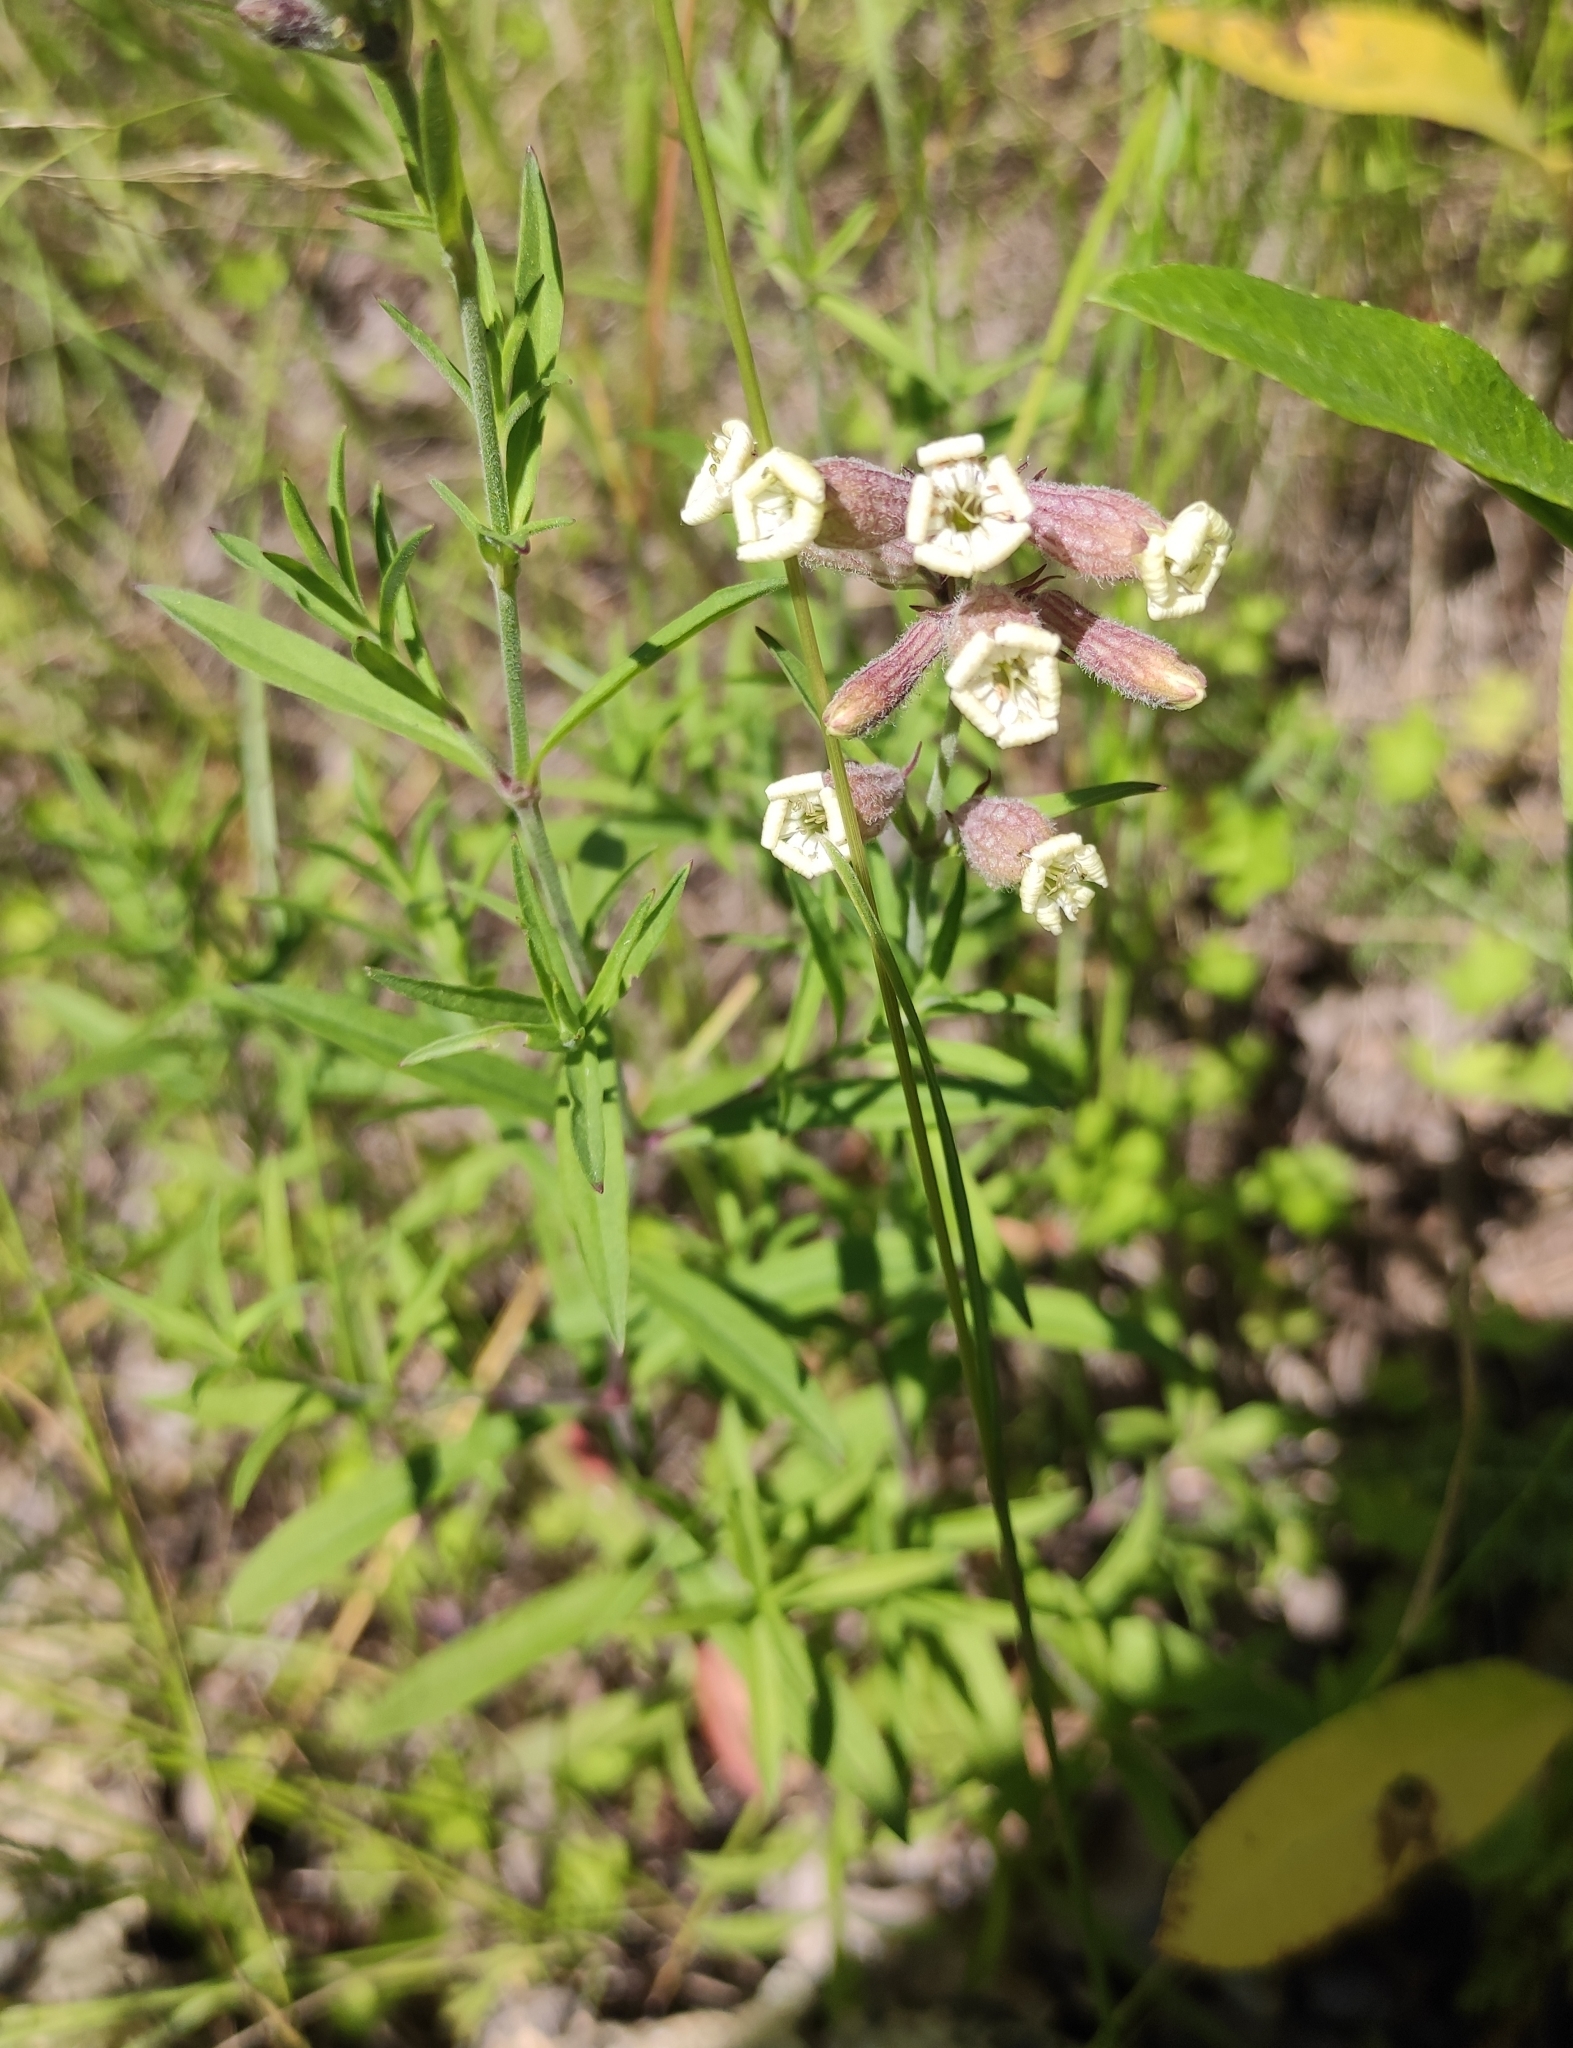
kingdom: Plantae
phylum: Tracheophyta
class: Magnoliopsida
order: Caryophyllales
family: Caryophyllaceae
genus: Silene
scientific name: Silene amoena
